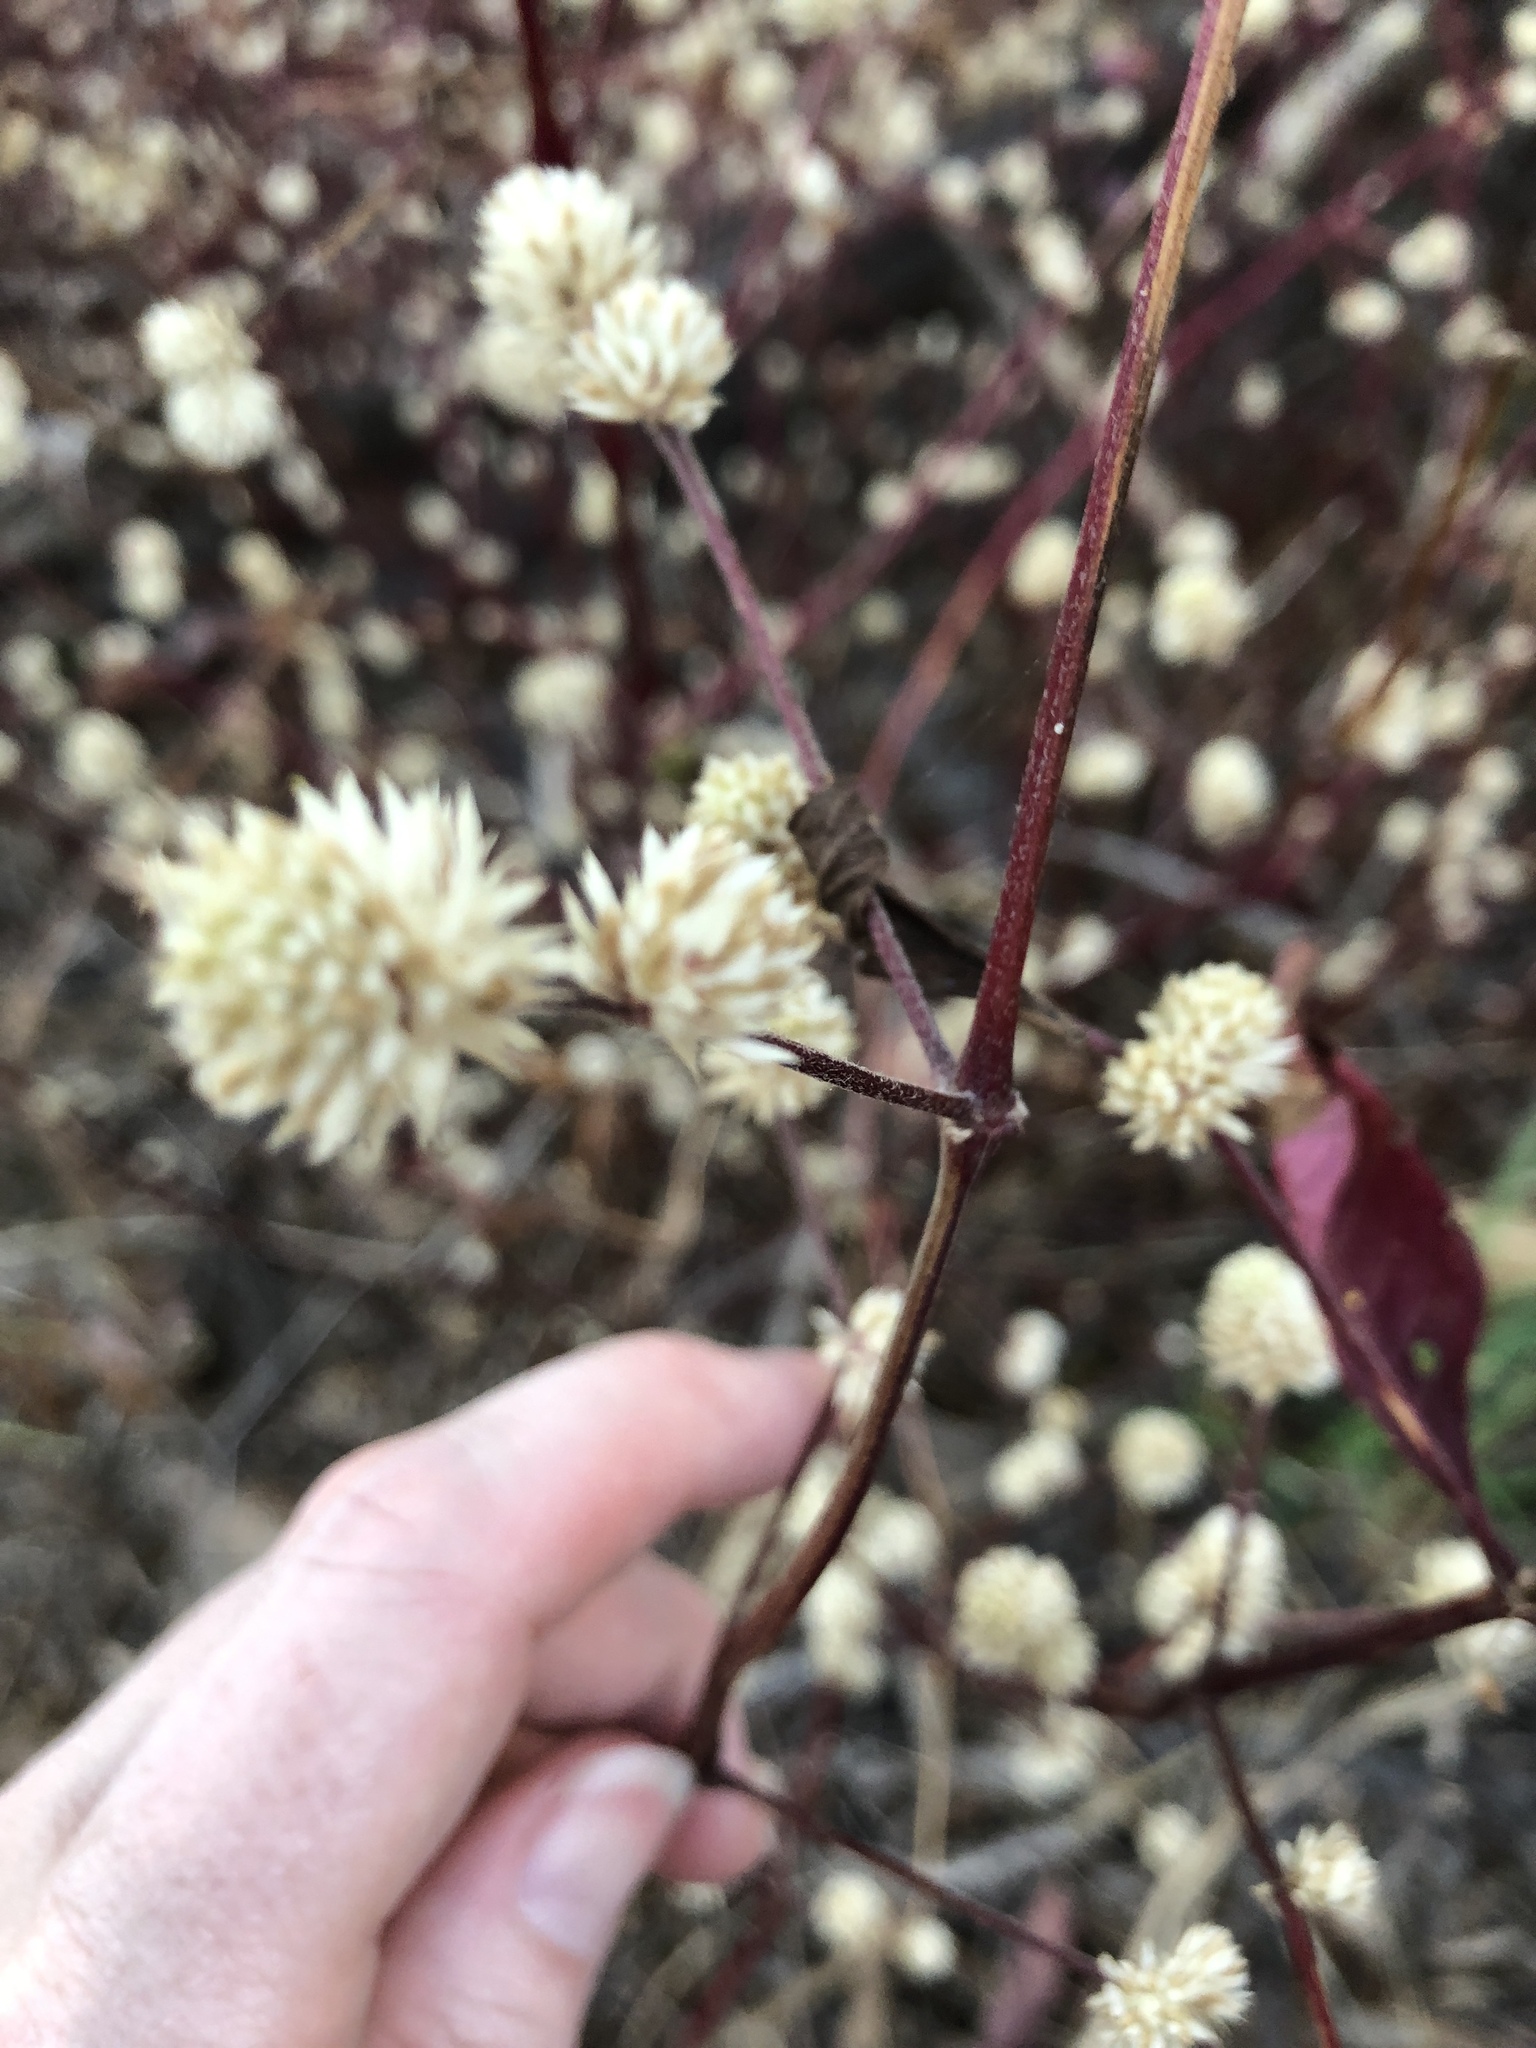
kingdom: Plantae
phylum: Tracheophyta
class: Magnoliopsida
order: Caryophyllales
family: Amaranthaceae
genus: Alternanthera
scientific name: Alternanthera brasiliana
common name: Brazilian joyweed
